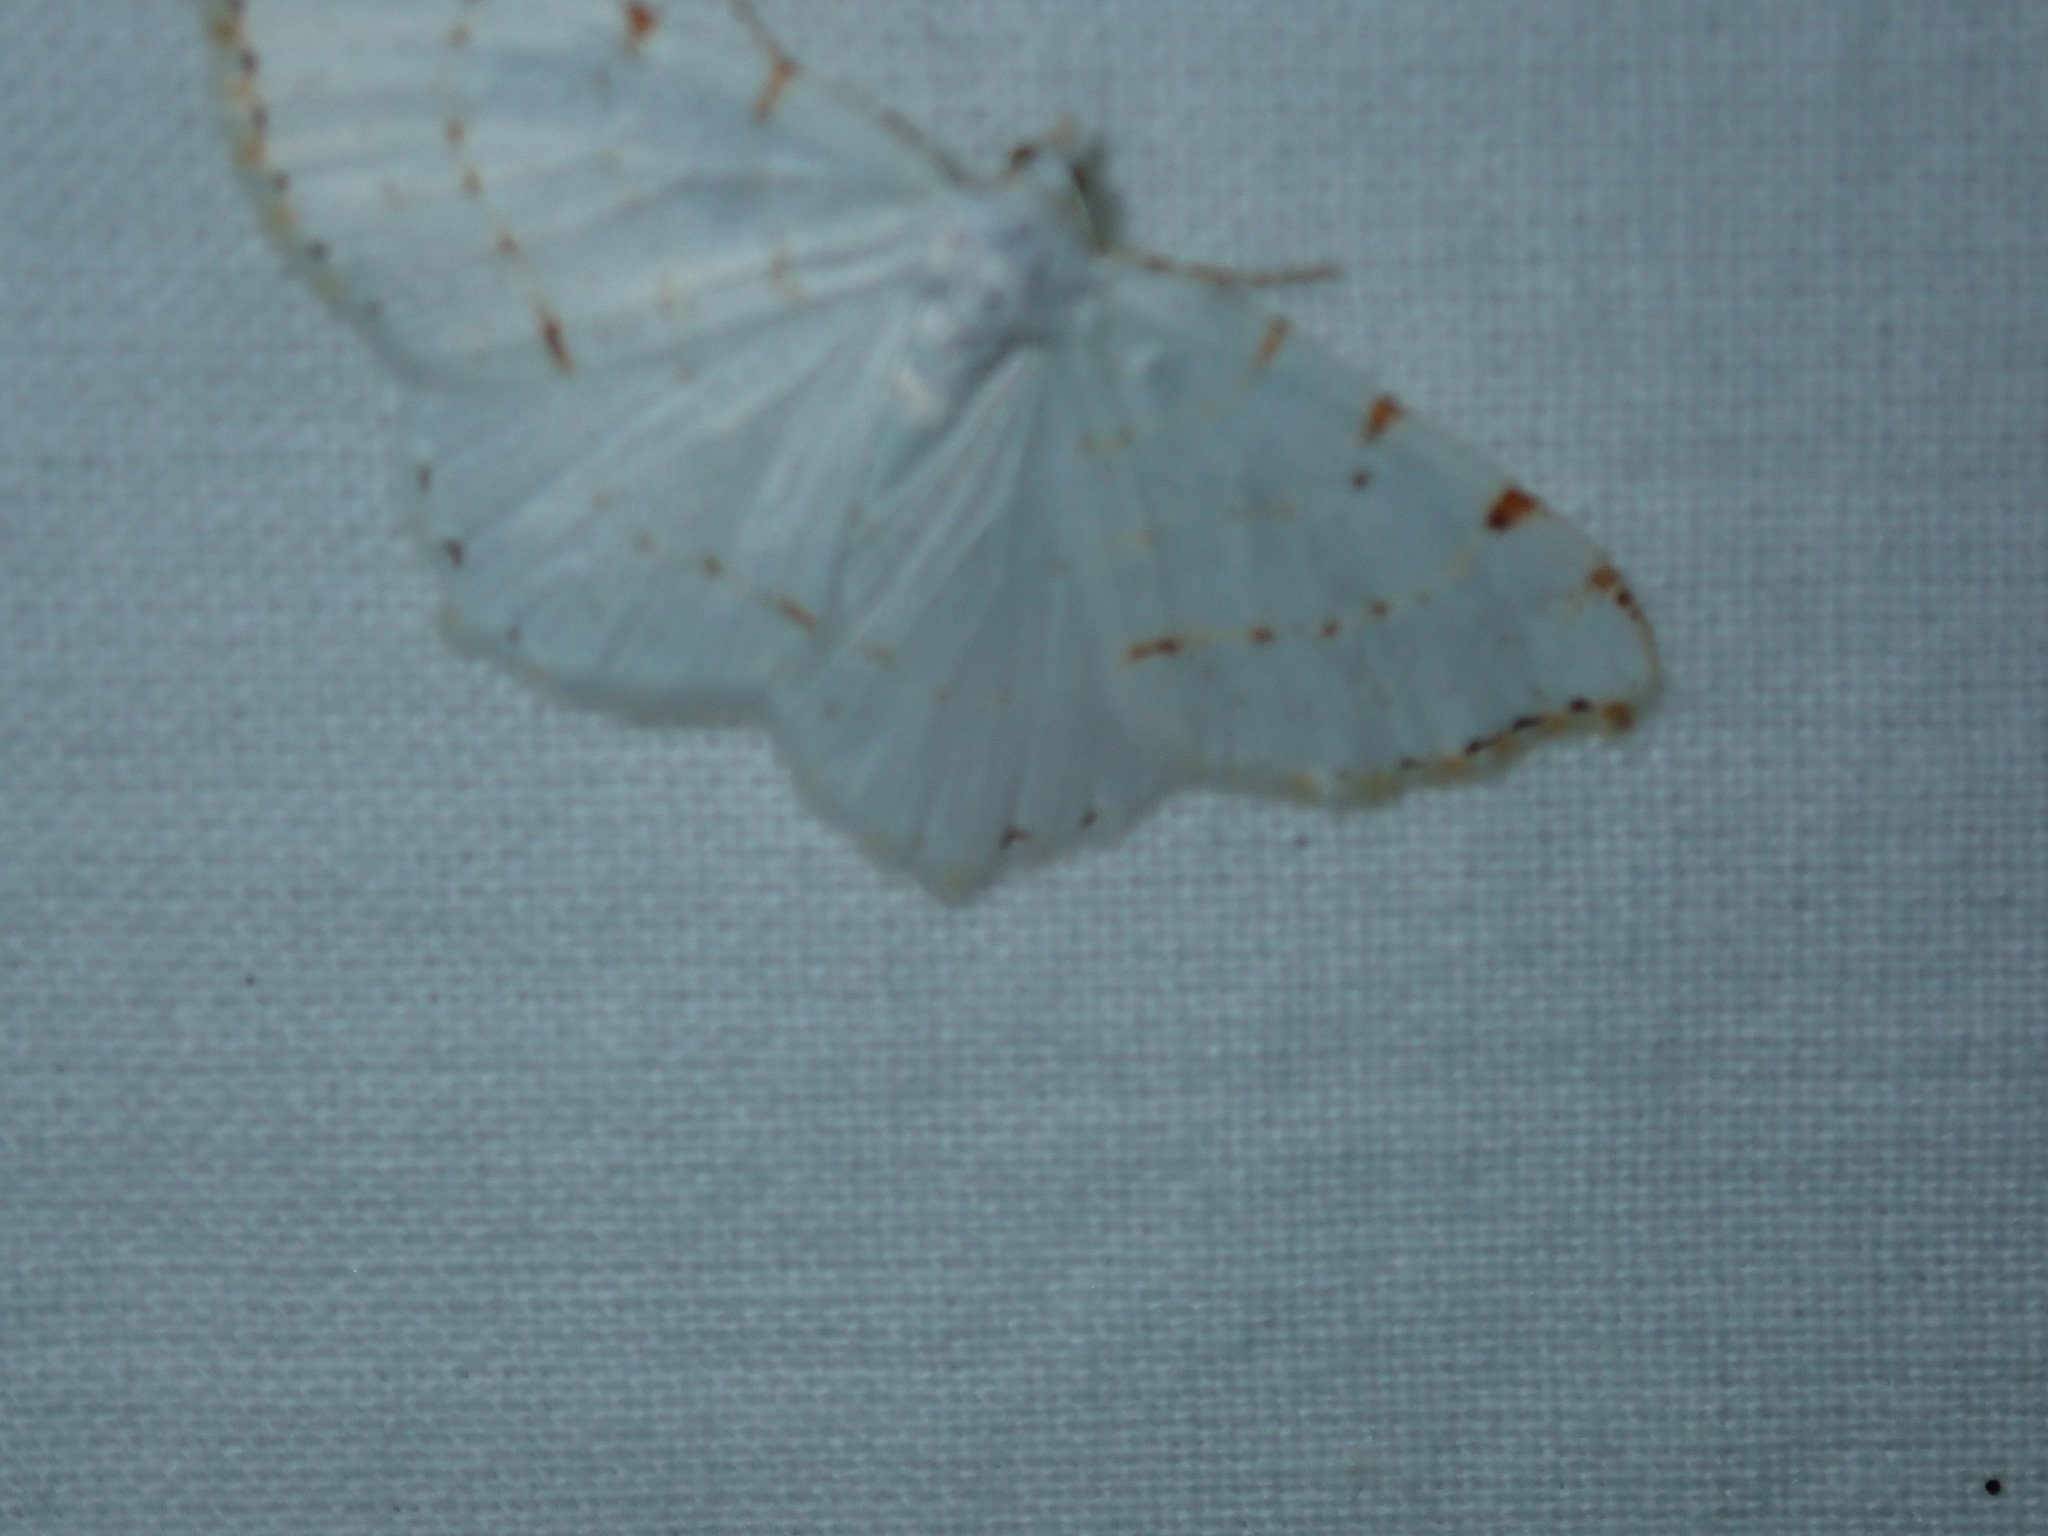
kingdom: Animalia
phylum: Arthropoda
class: Insecta
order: Lepidoptera
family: Geometridae
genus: Macaria
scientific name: Macaria pustularia
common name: Lesser maple spanworm moth
